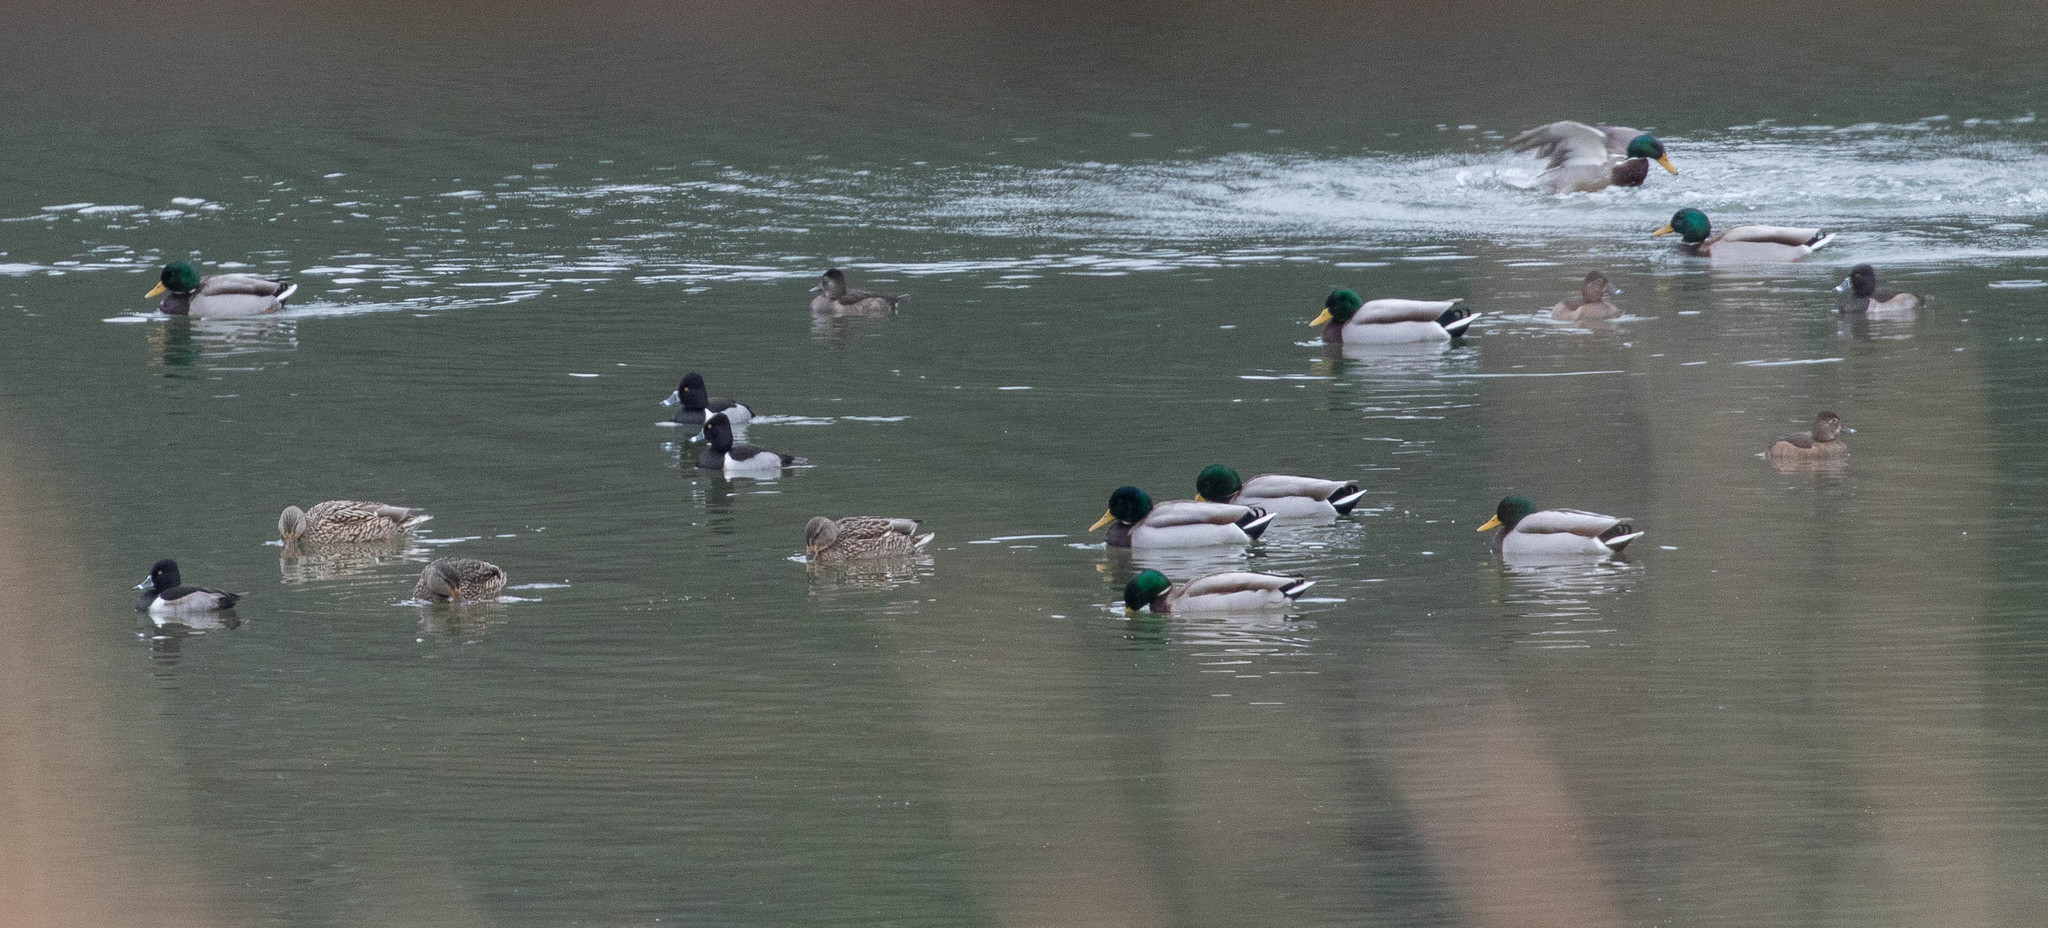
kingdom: Animalia
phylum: Chordata
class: Aves
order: Anseriformes
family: Anatidae
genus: Aythya
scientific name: Aythya collaris
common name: Ring-necked duck
